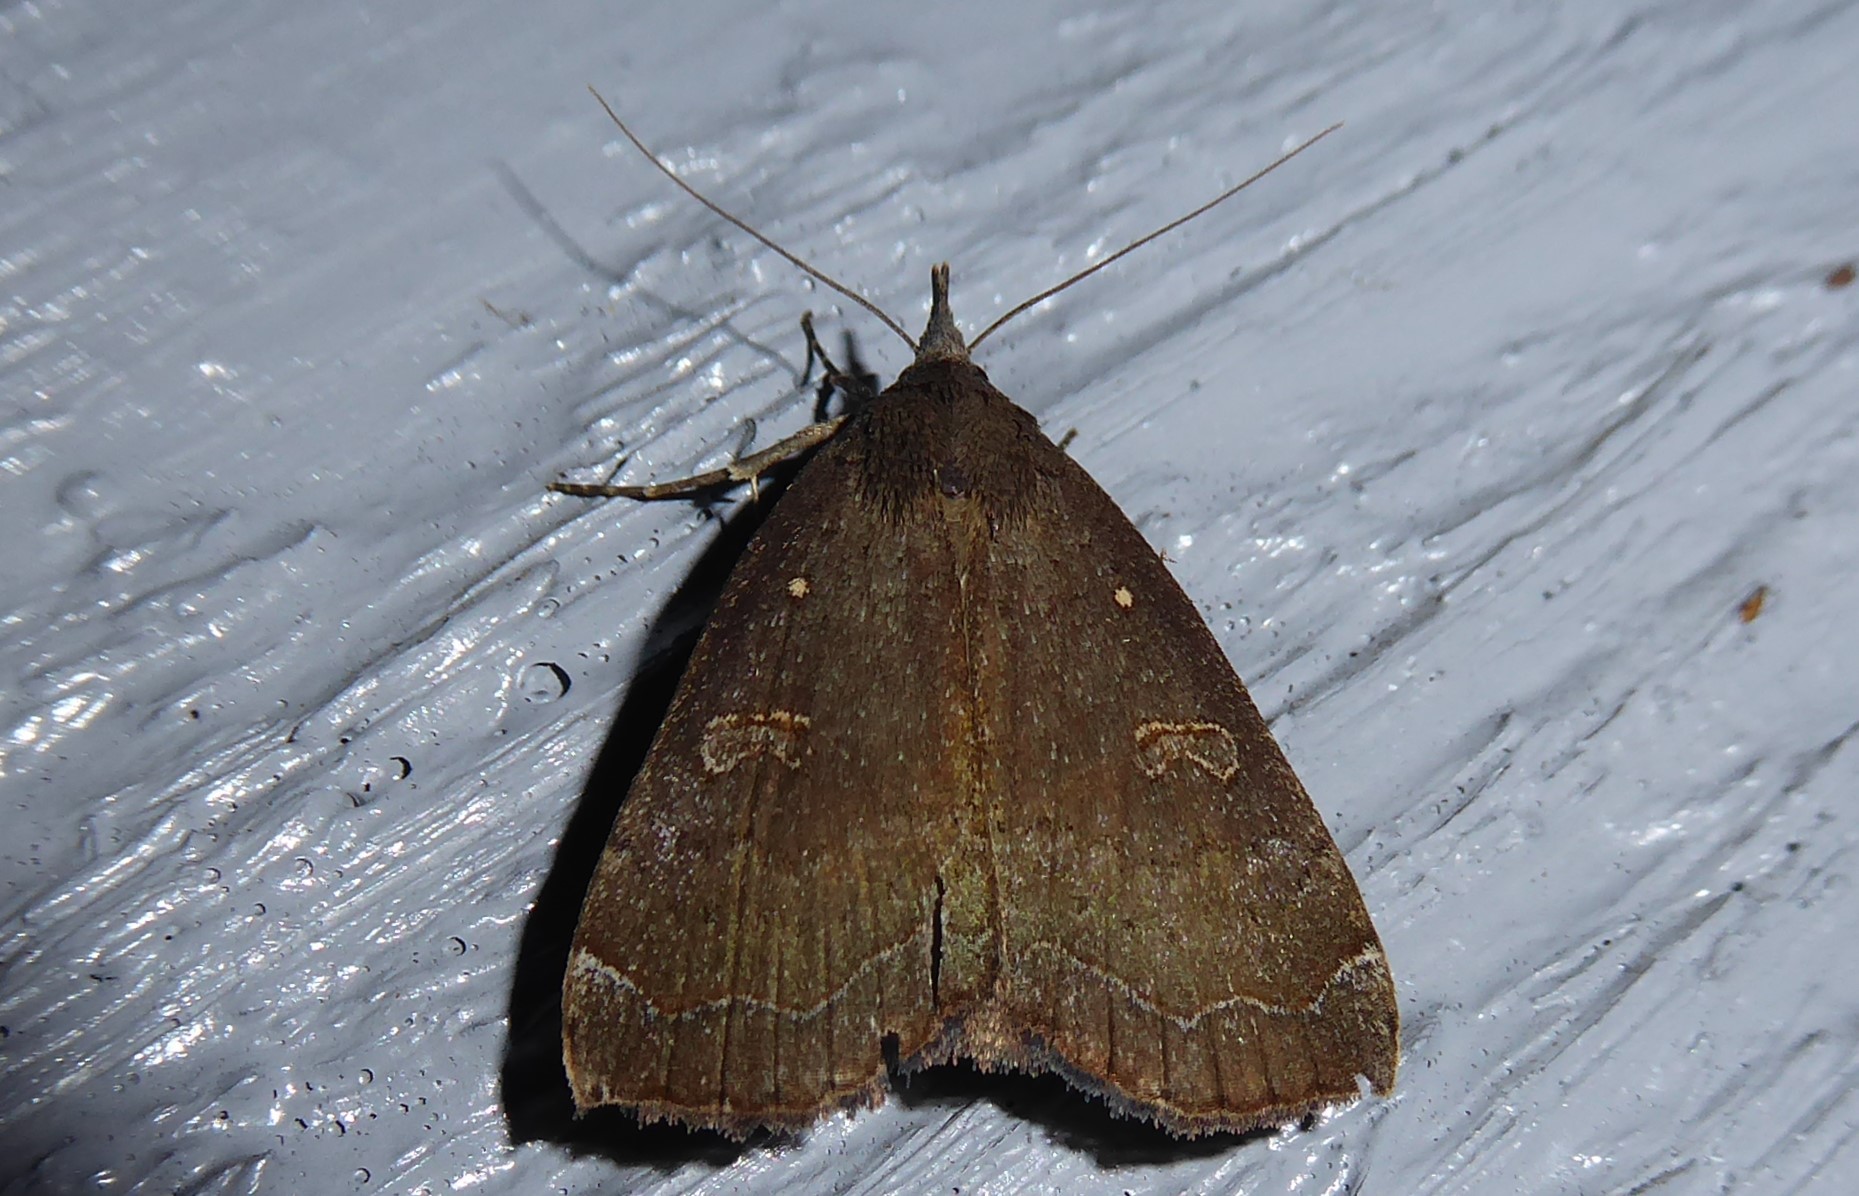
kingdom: Animalia
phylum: Arthropoda
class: Insecta
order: Lepidoptera
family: Erebidae
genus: Rhapsa
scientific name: Rhapsa scotosialis
